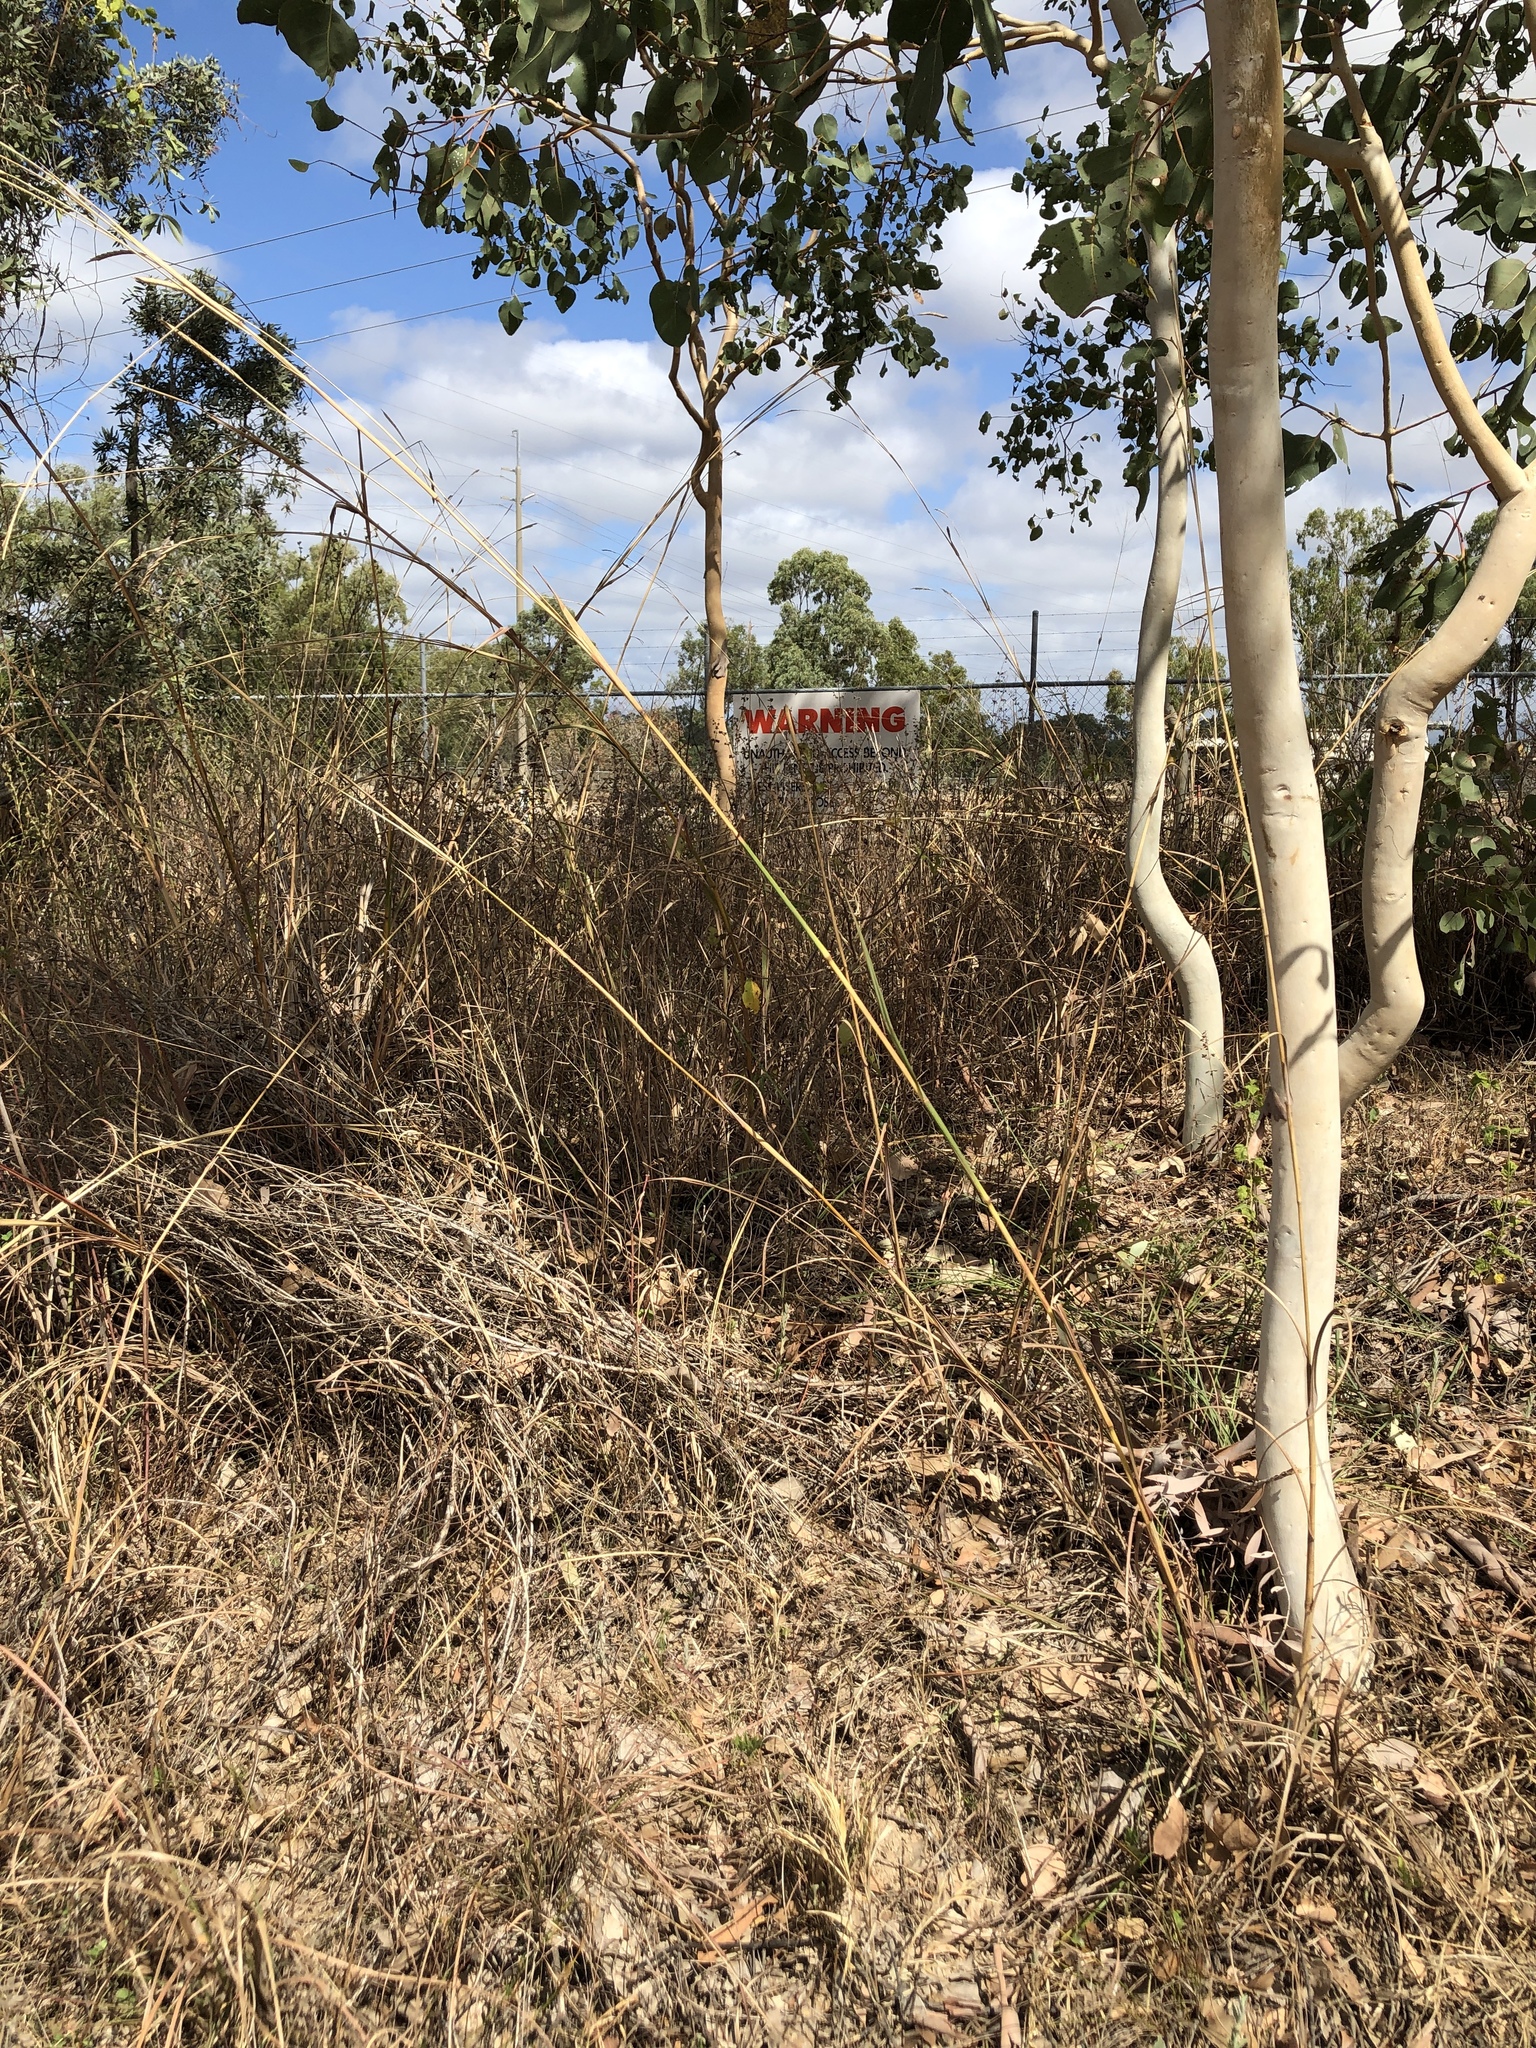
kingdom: Plantae
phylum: Tracheophyta
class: Liliopsida
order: Poales
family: Poaceae
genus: Heteropogon
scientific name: Heteropogon triticeus
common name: Sugar grass
